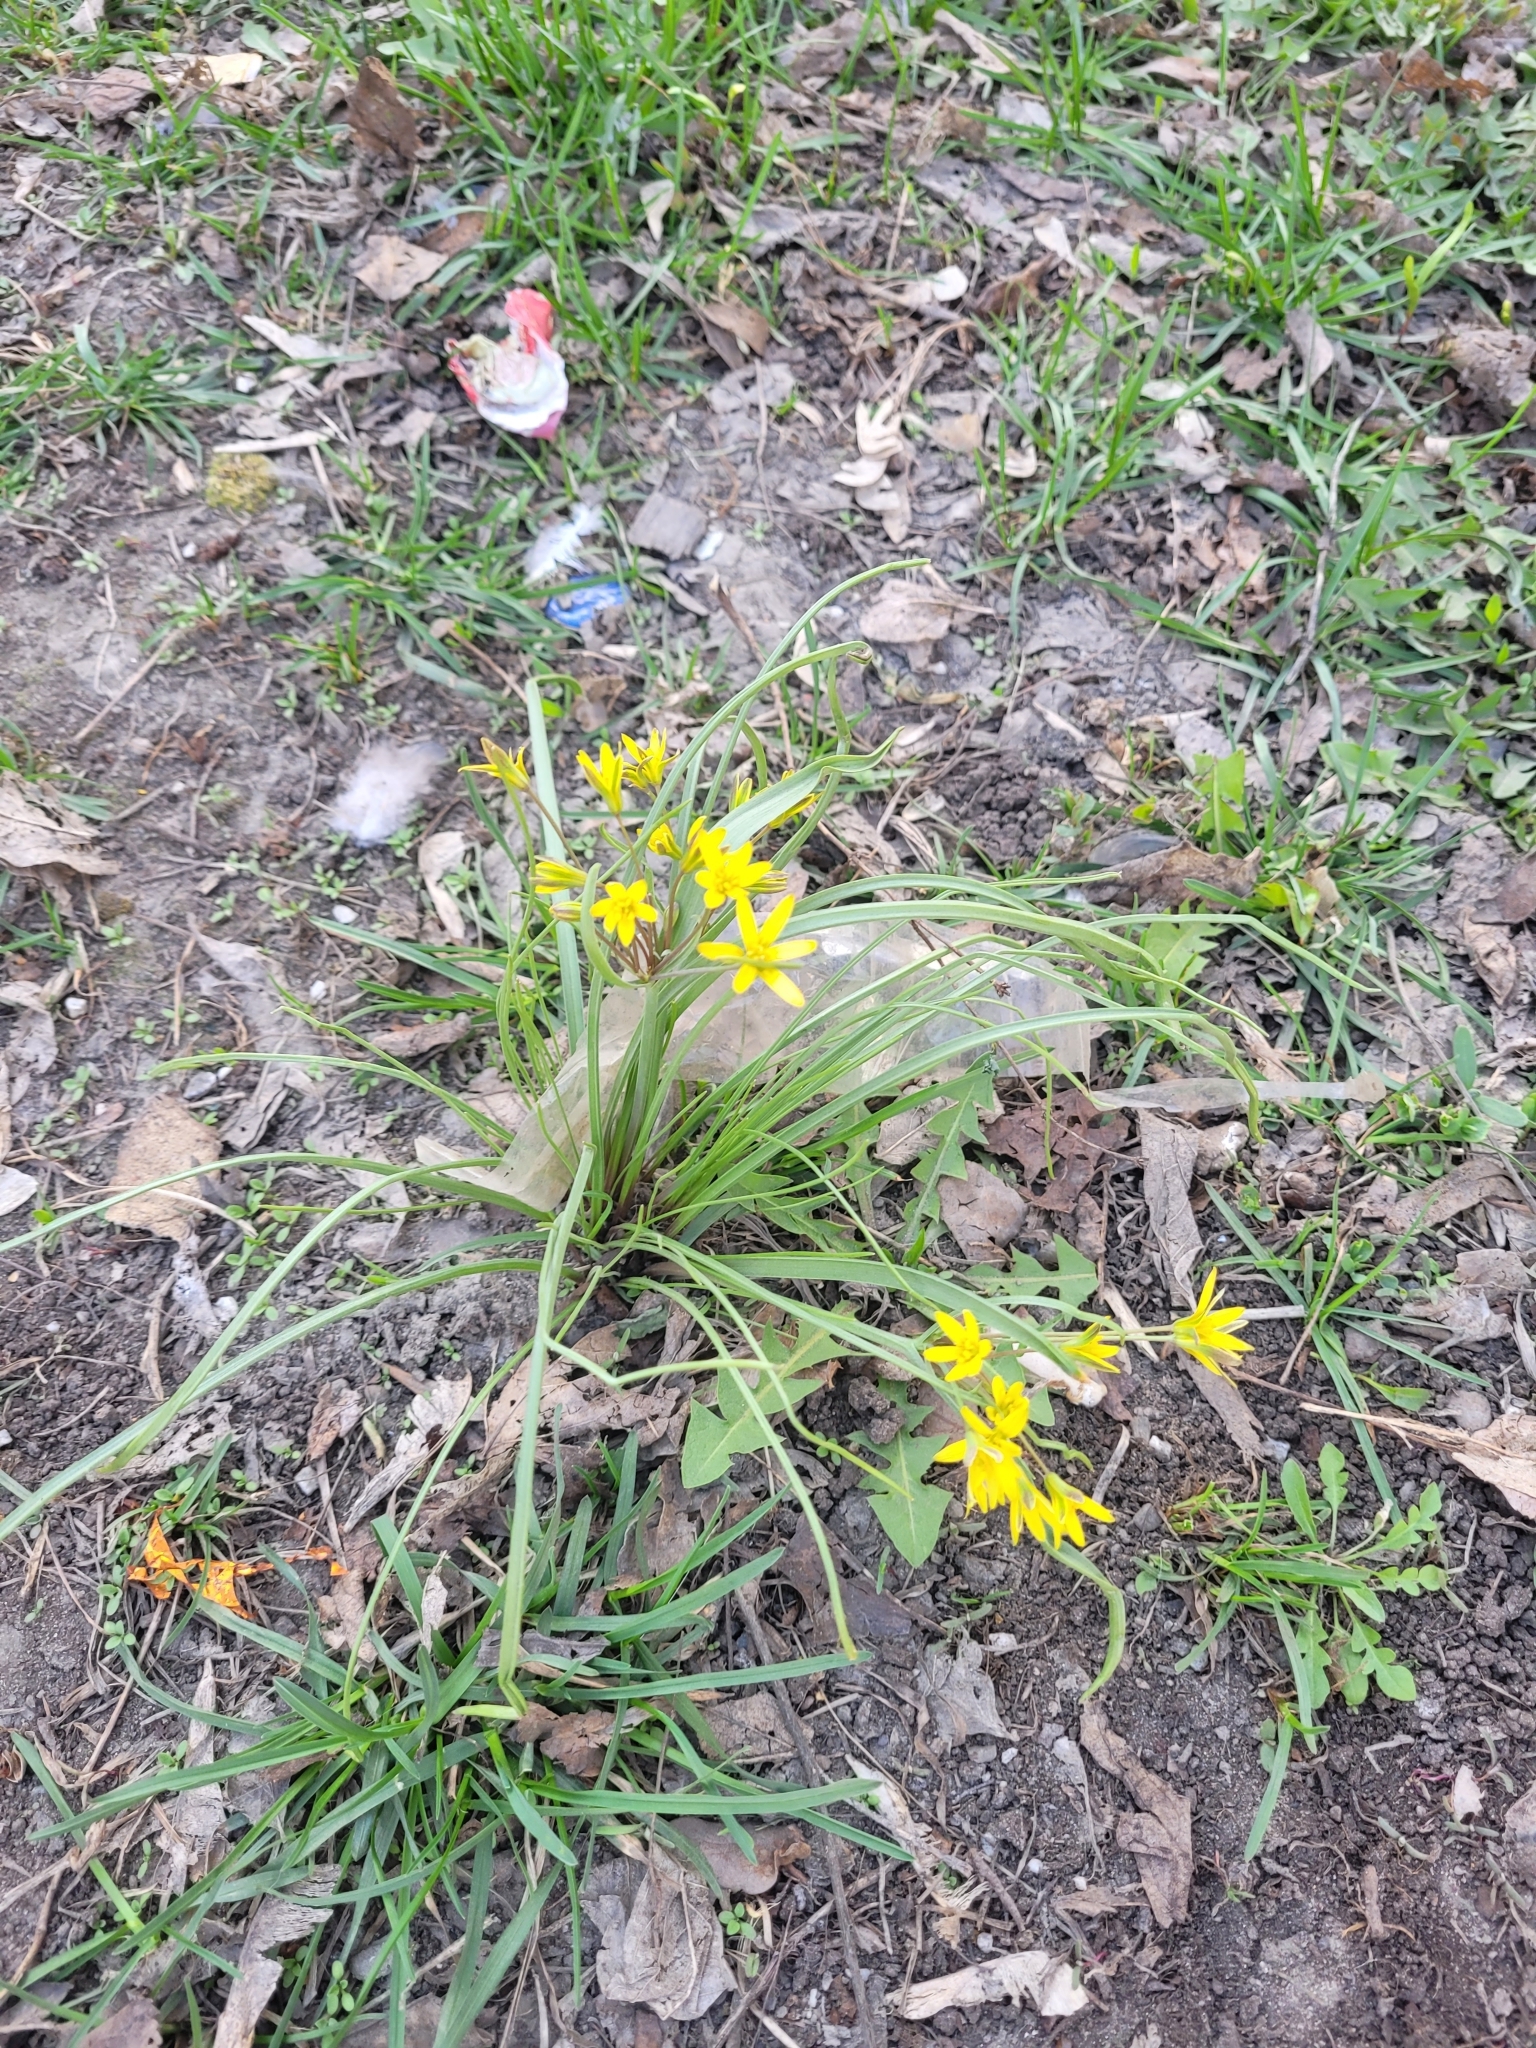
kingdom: Plantae
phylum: Tracheophyta
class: Liliopsida
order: Liliales
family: Liliaceae
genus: Gagea
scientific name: Gagea fragifera
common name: Lily
